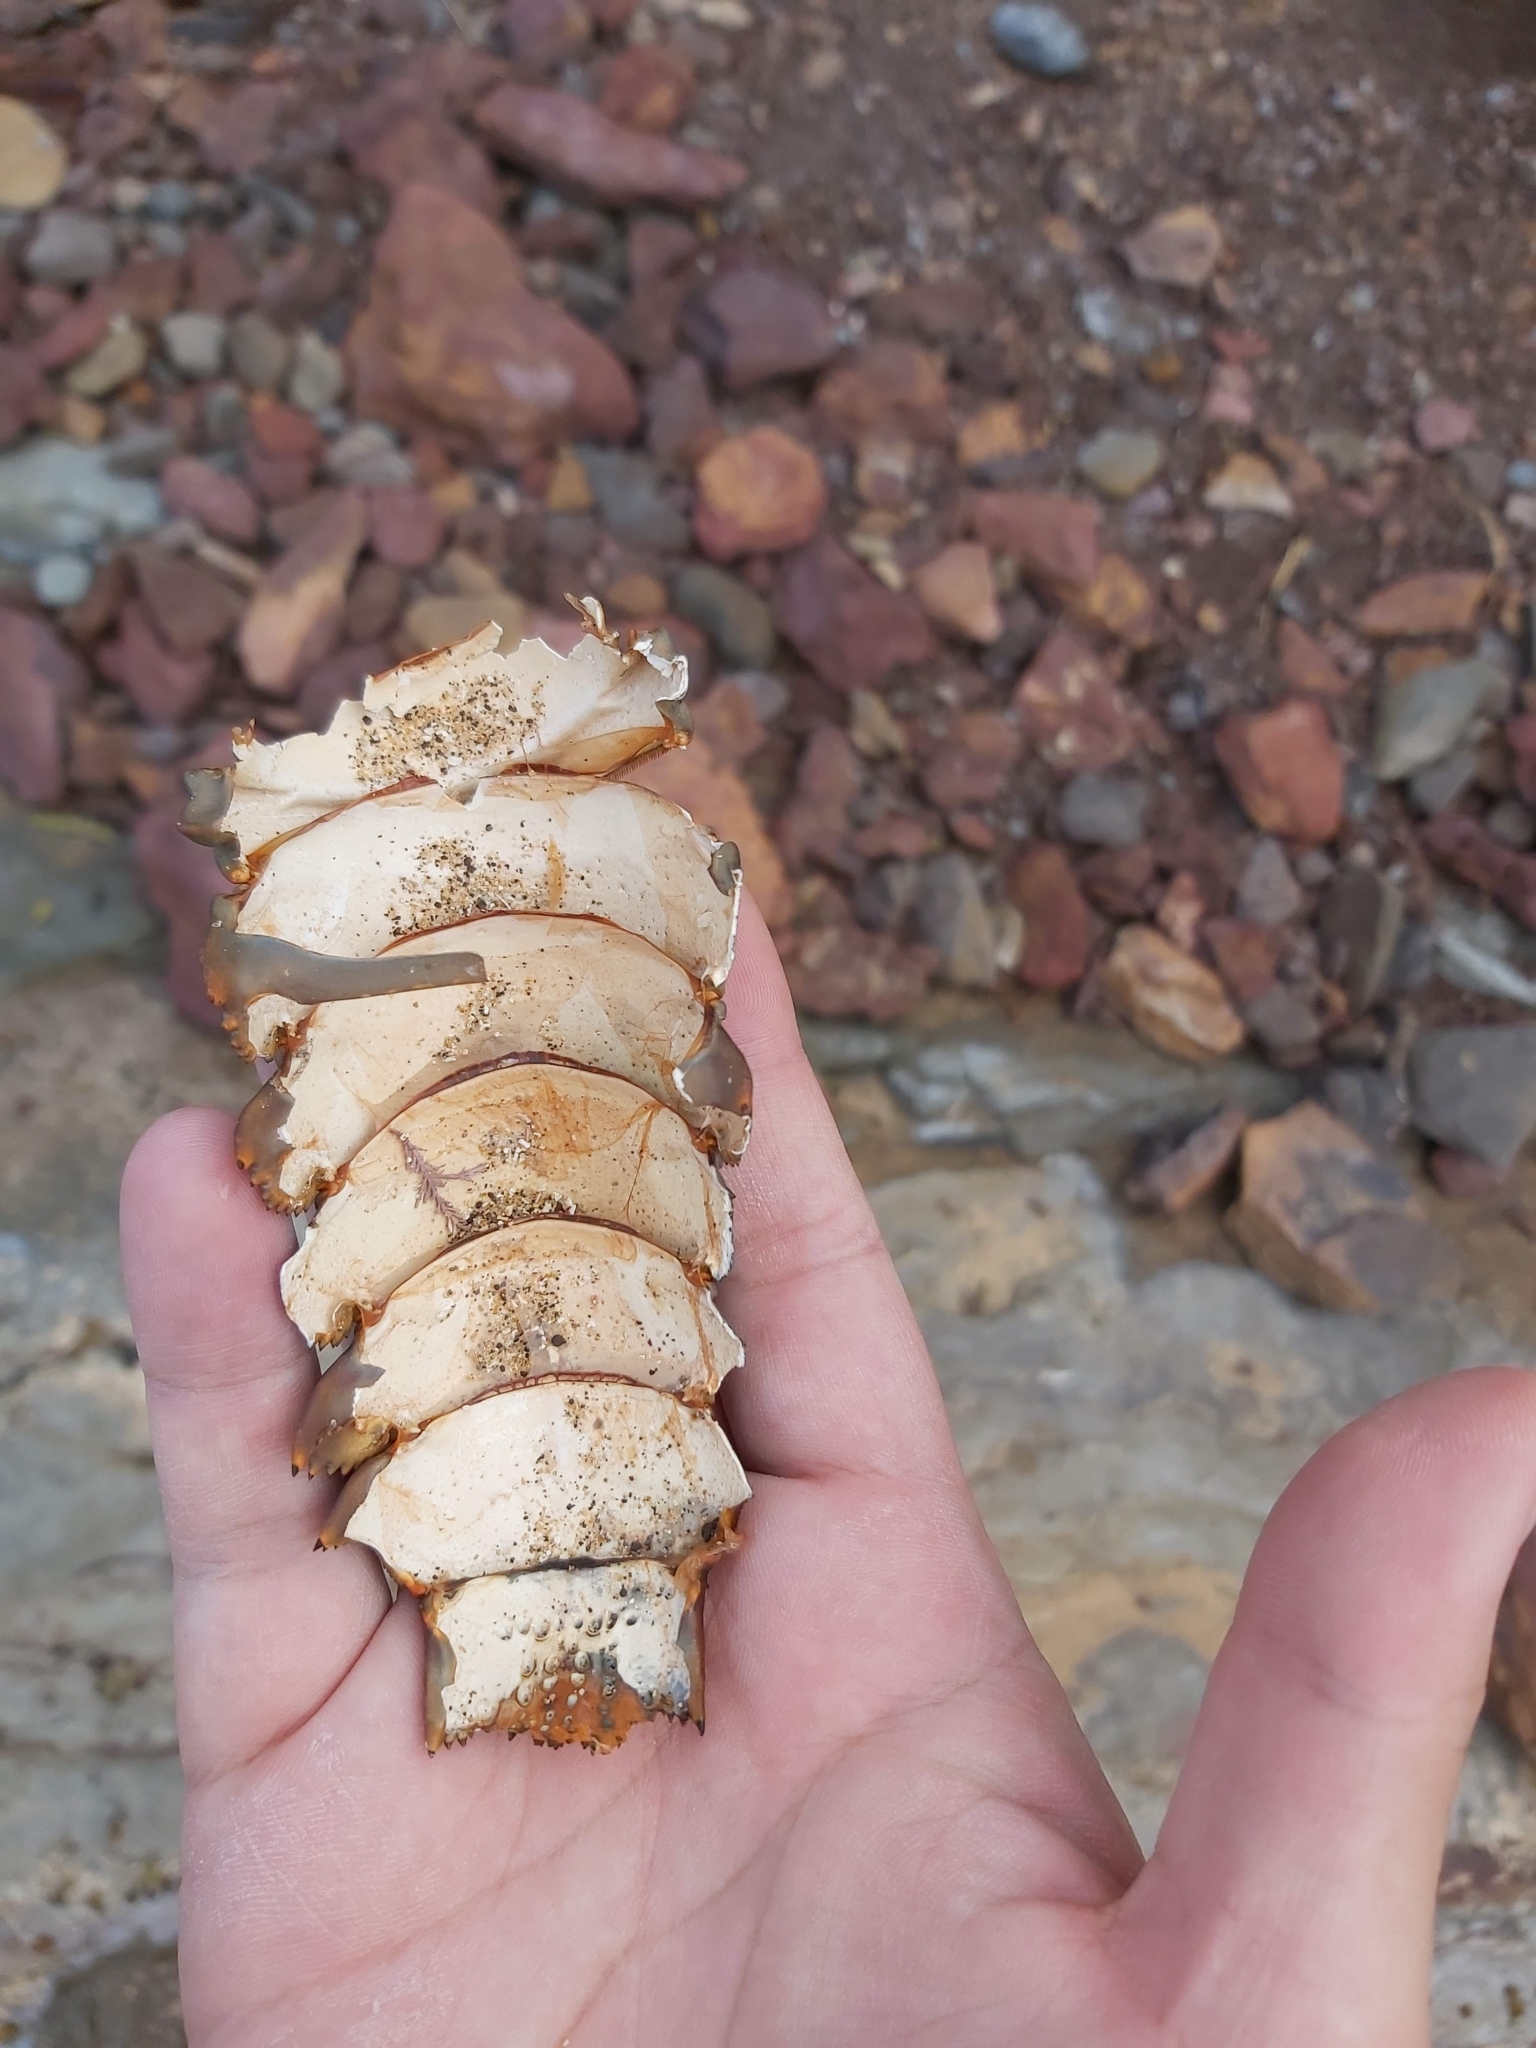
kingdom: Animalia
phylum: Arthropoda
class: Malacostraca
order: Decapoda
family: Palinuridae
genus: Sagmariasus
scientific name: Sagmariasus verreauxi
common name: Green rock lobster
